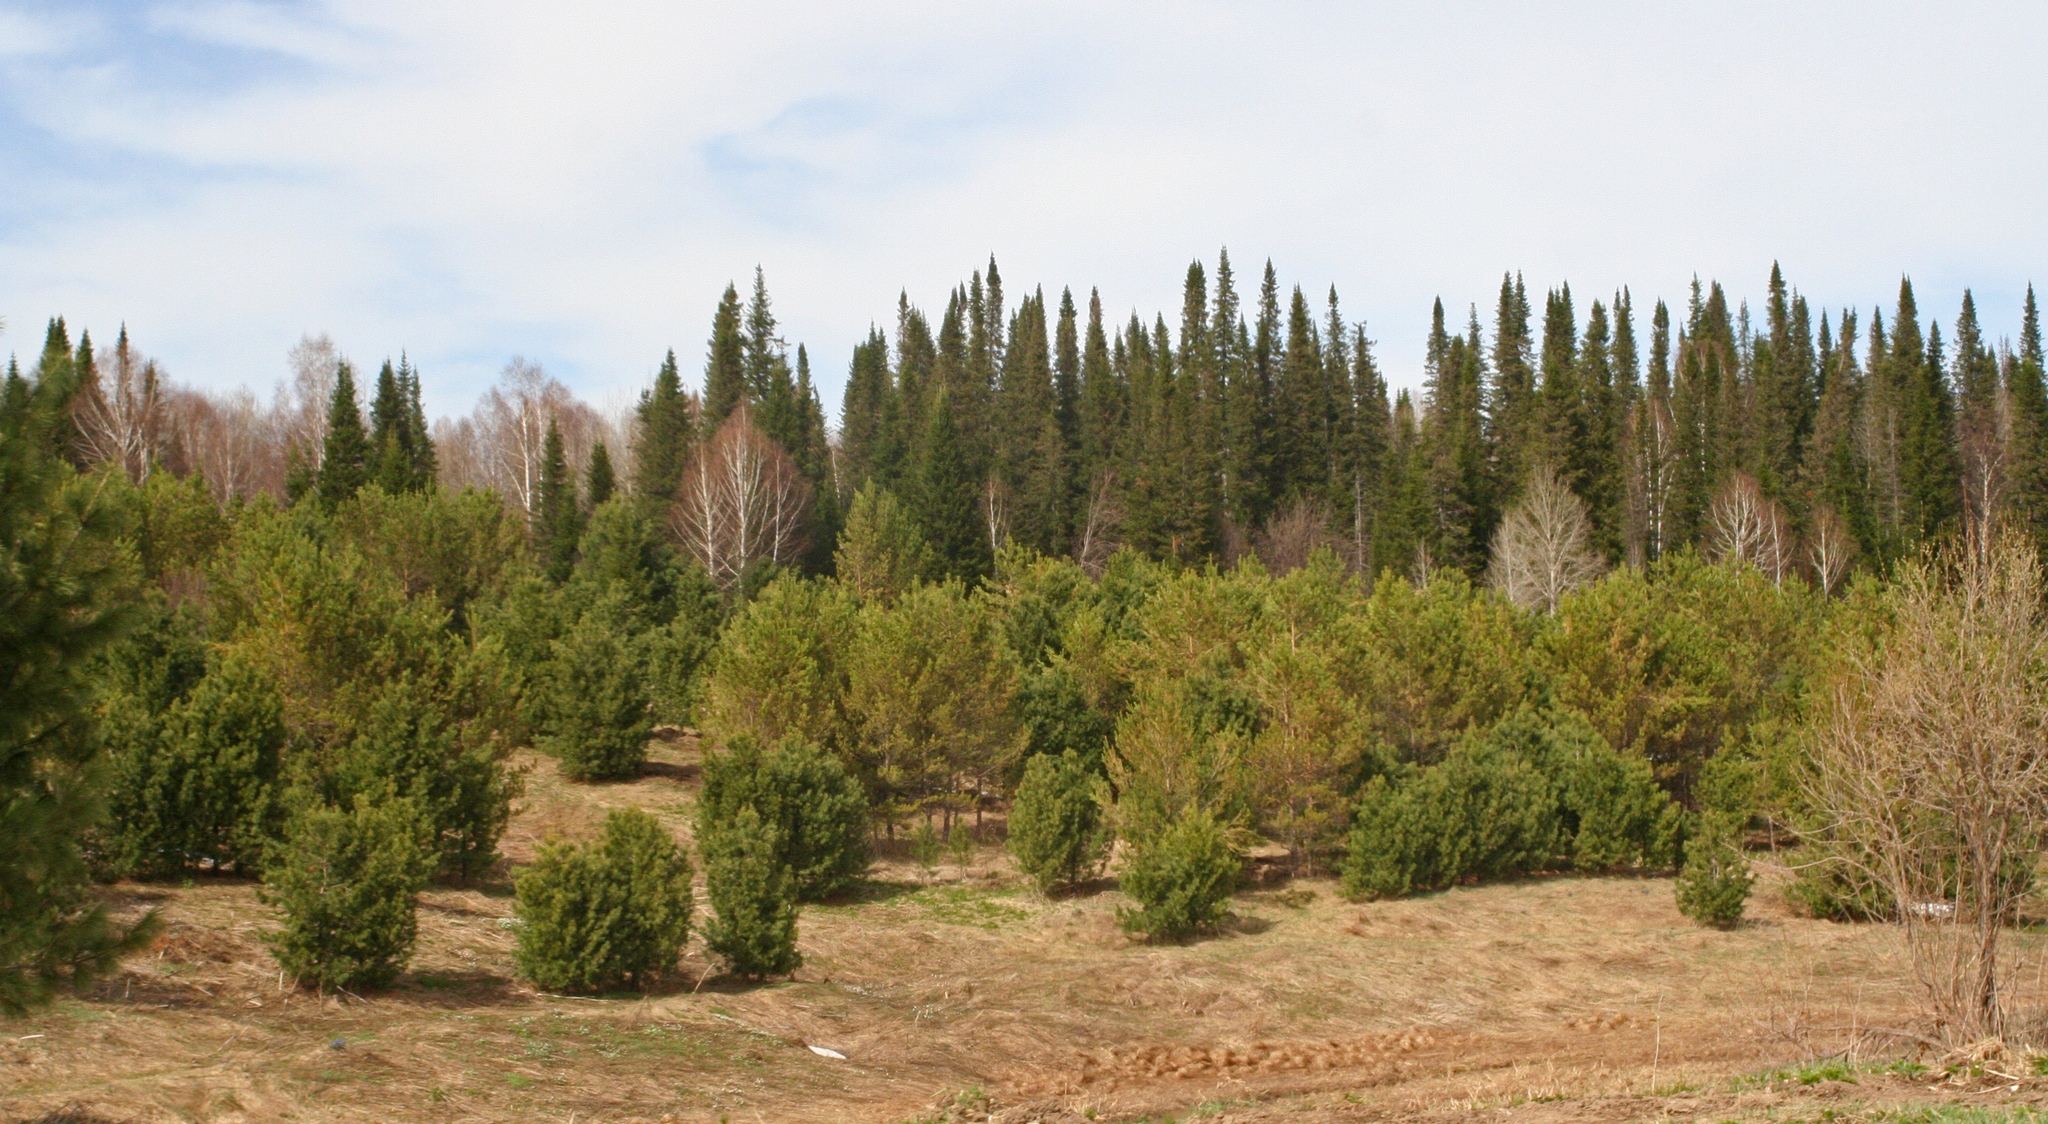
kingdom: Plantae
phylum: Tracheophyta
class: Pinopsida
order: Pinales
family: Pinaceae
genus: Pinus
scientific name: Pinus sylvestris
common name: Scots pine
